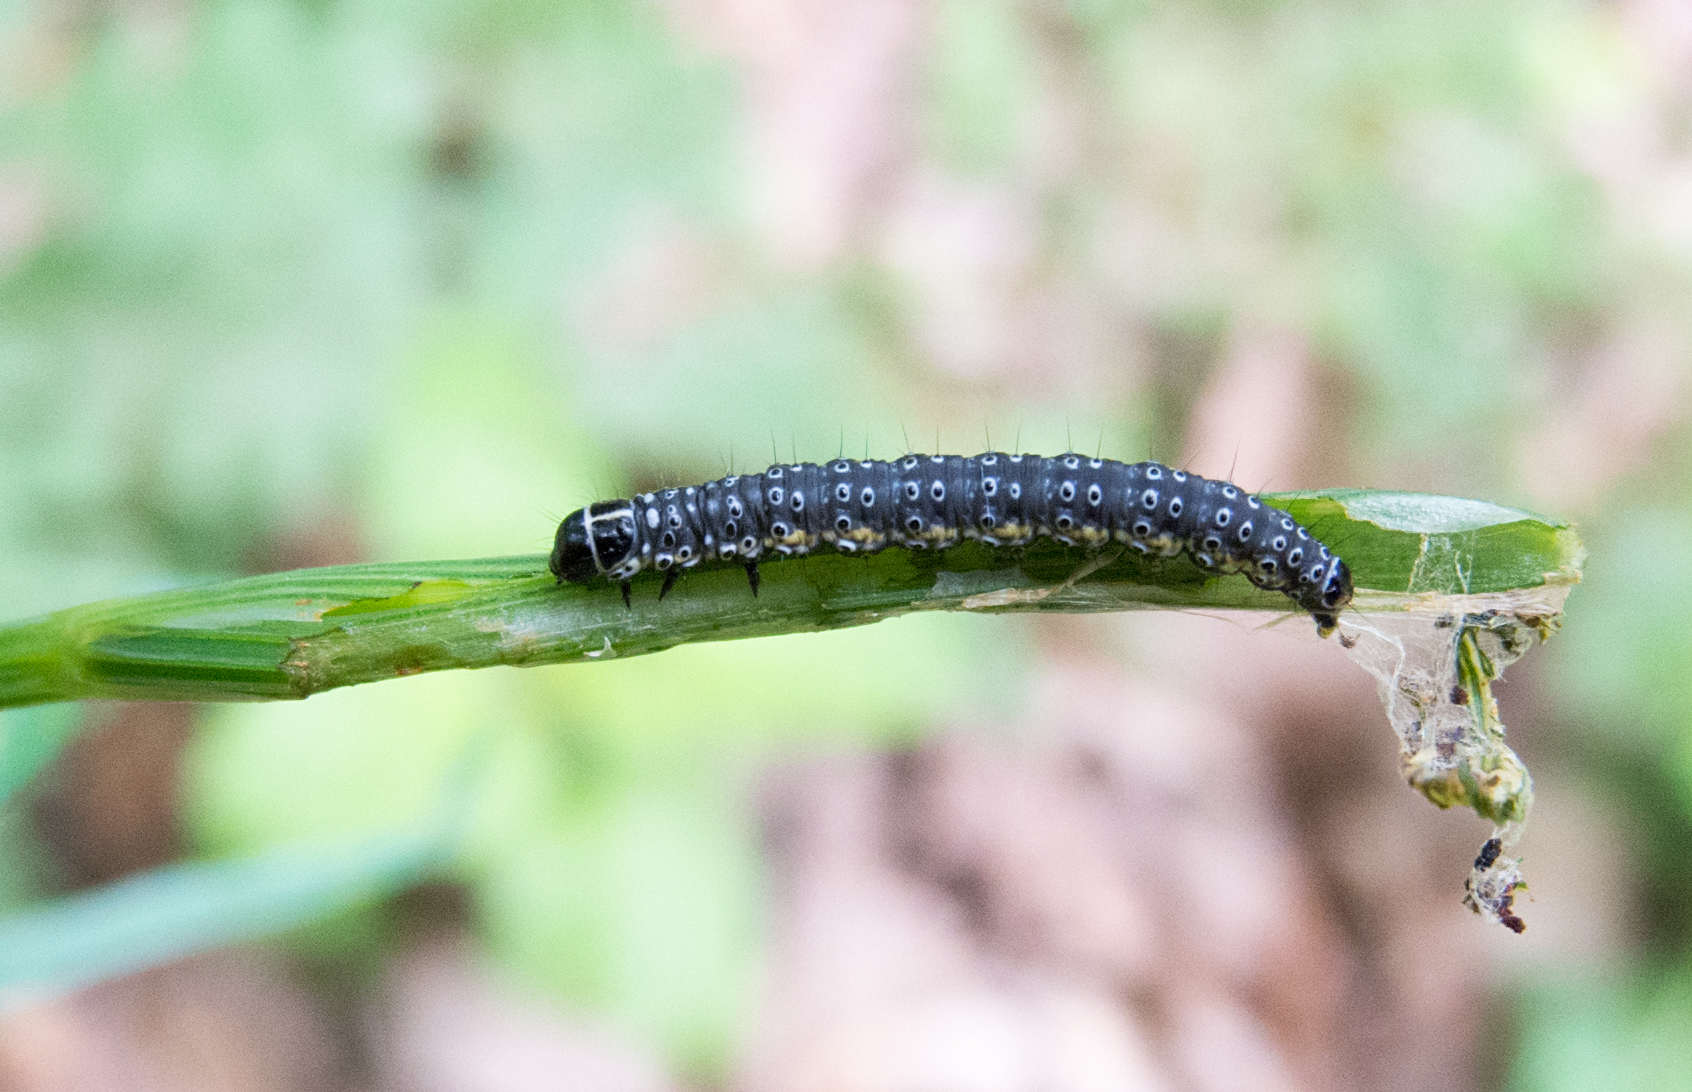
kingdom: Animalia
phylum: Arthropoda
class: Insecta
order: Lepidoptera
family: Depressariidae
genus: Depressaria
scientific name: Depressaria apiella
